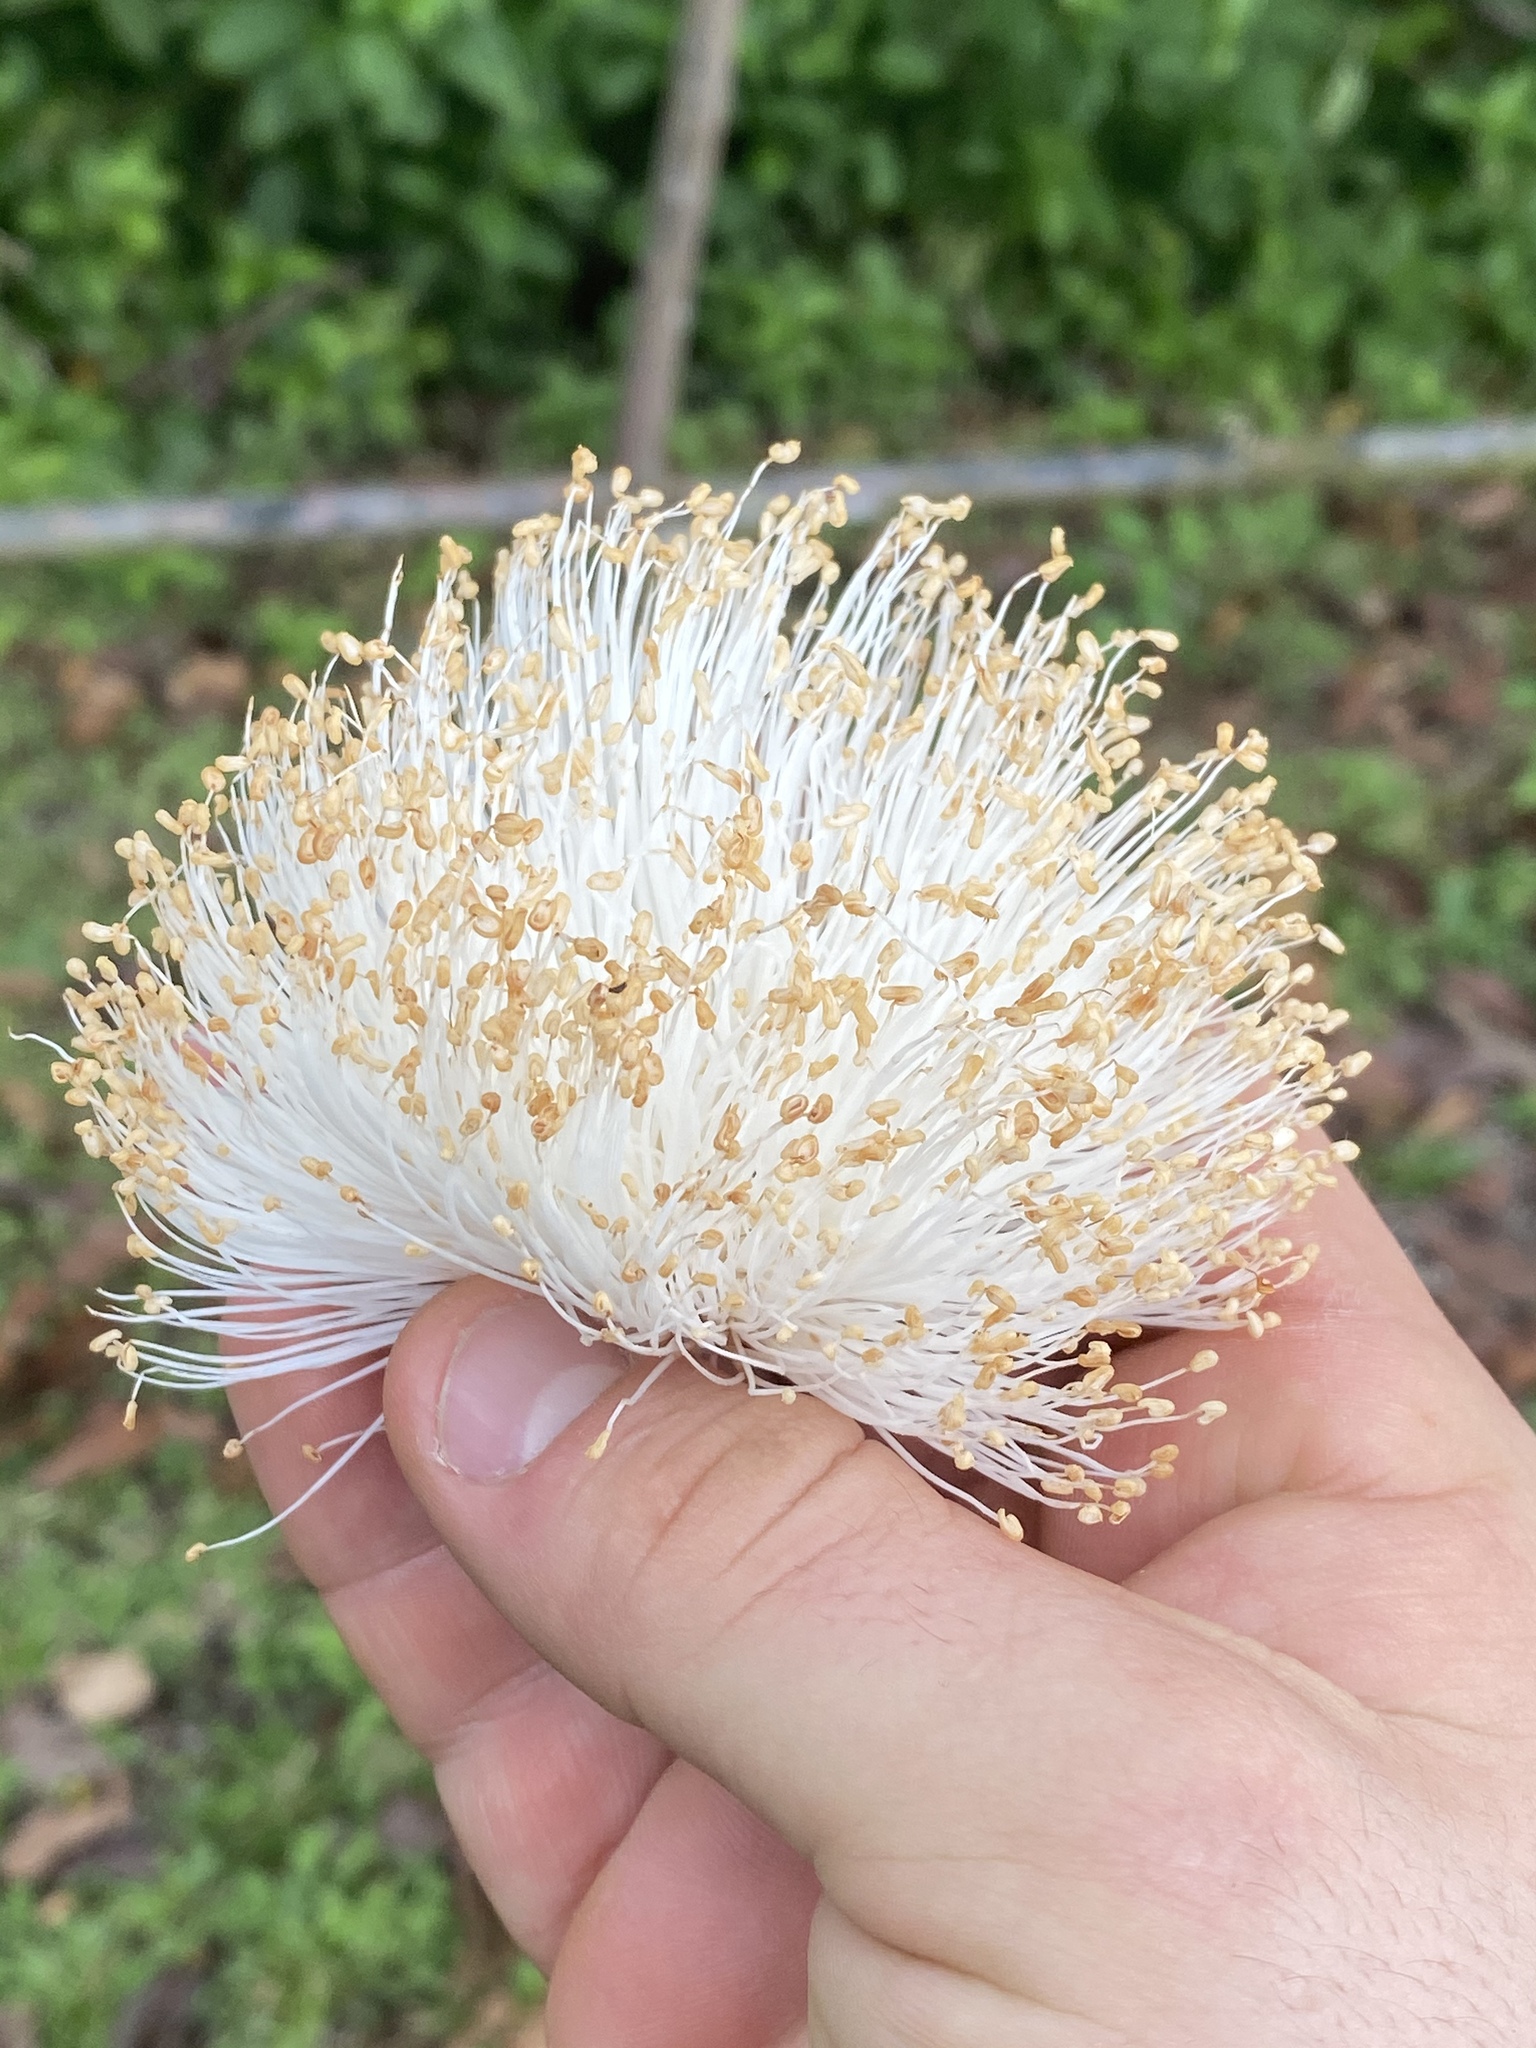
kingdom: Plantae
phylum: Tracheophyta
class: Magnoliopsida
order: Malvales
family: Malvaceae
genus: Pseudobombax
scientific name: Pseudobombax septenatum
